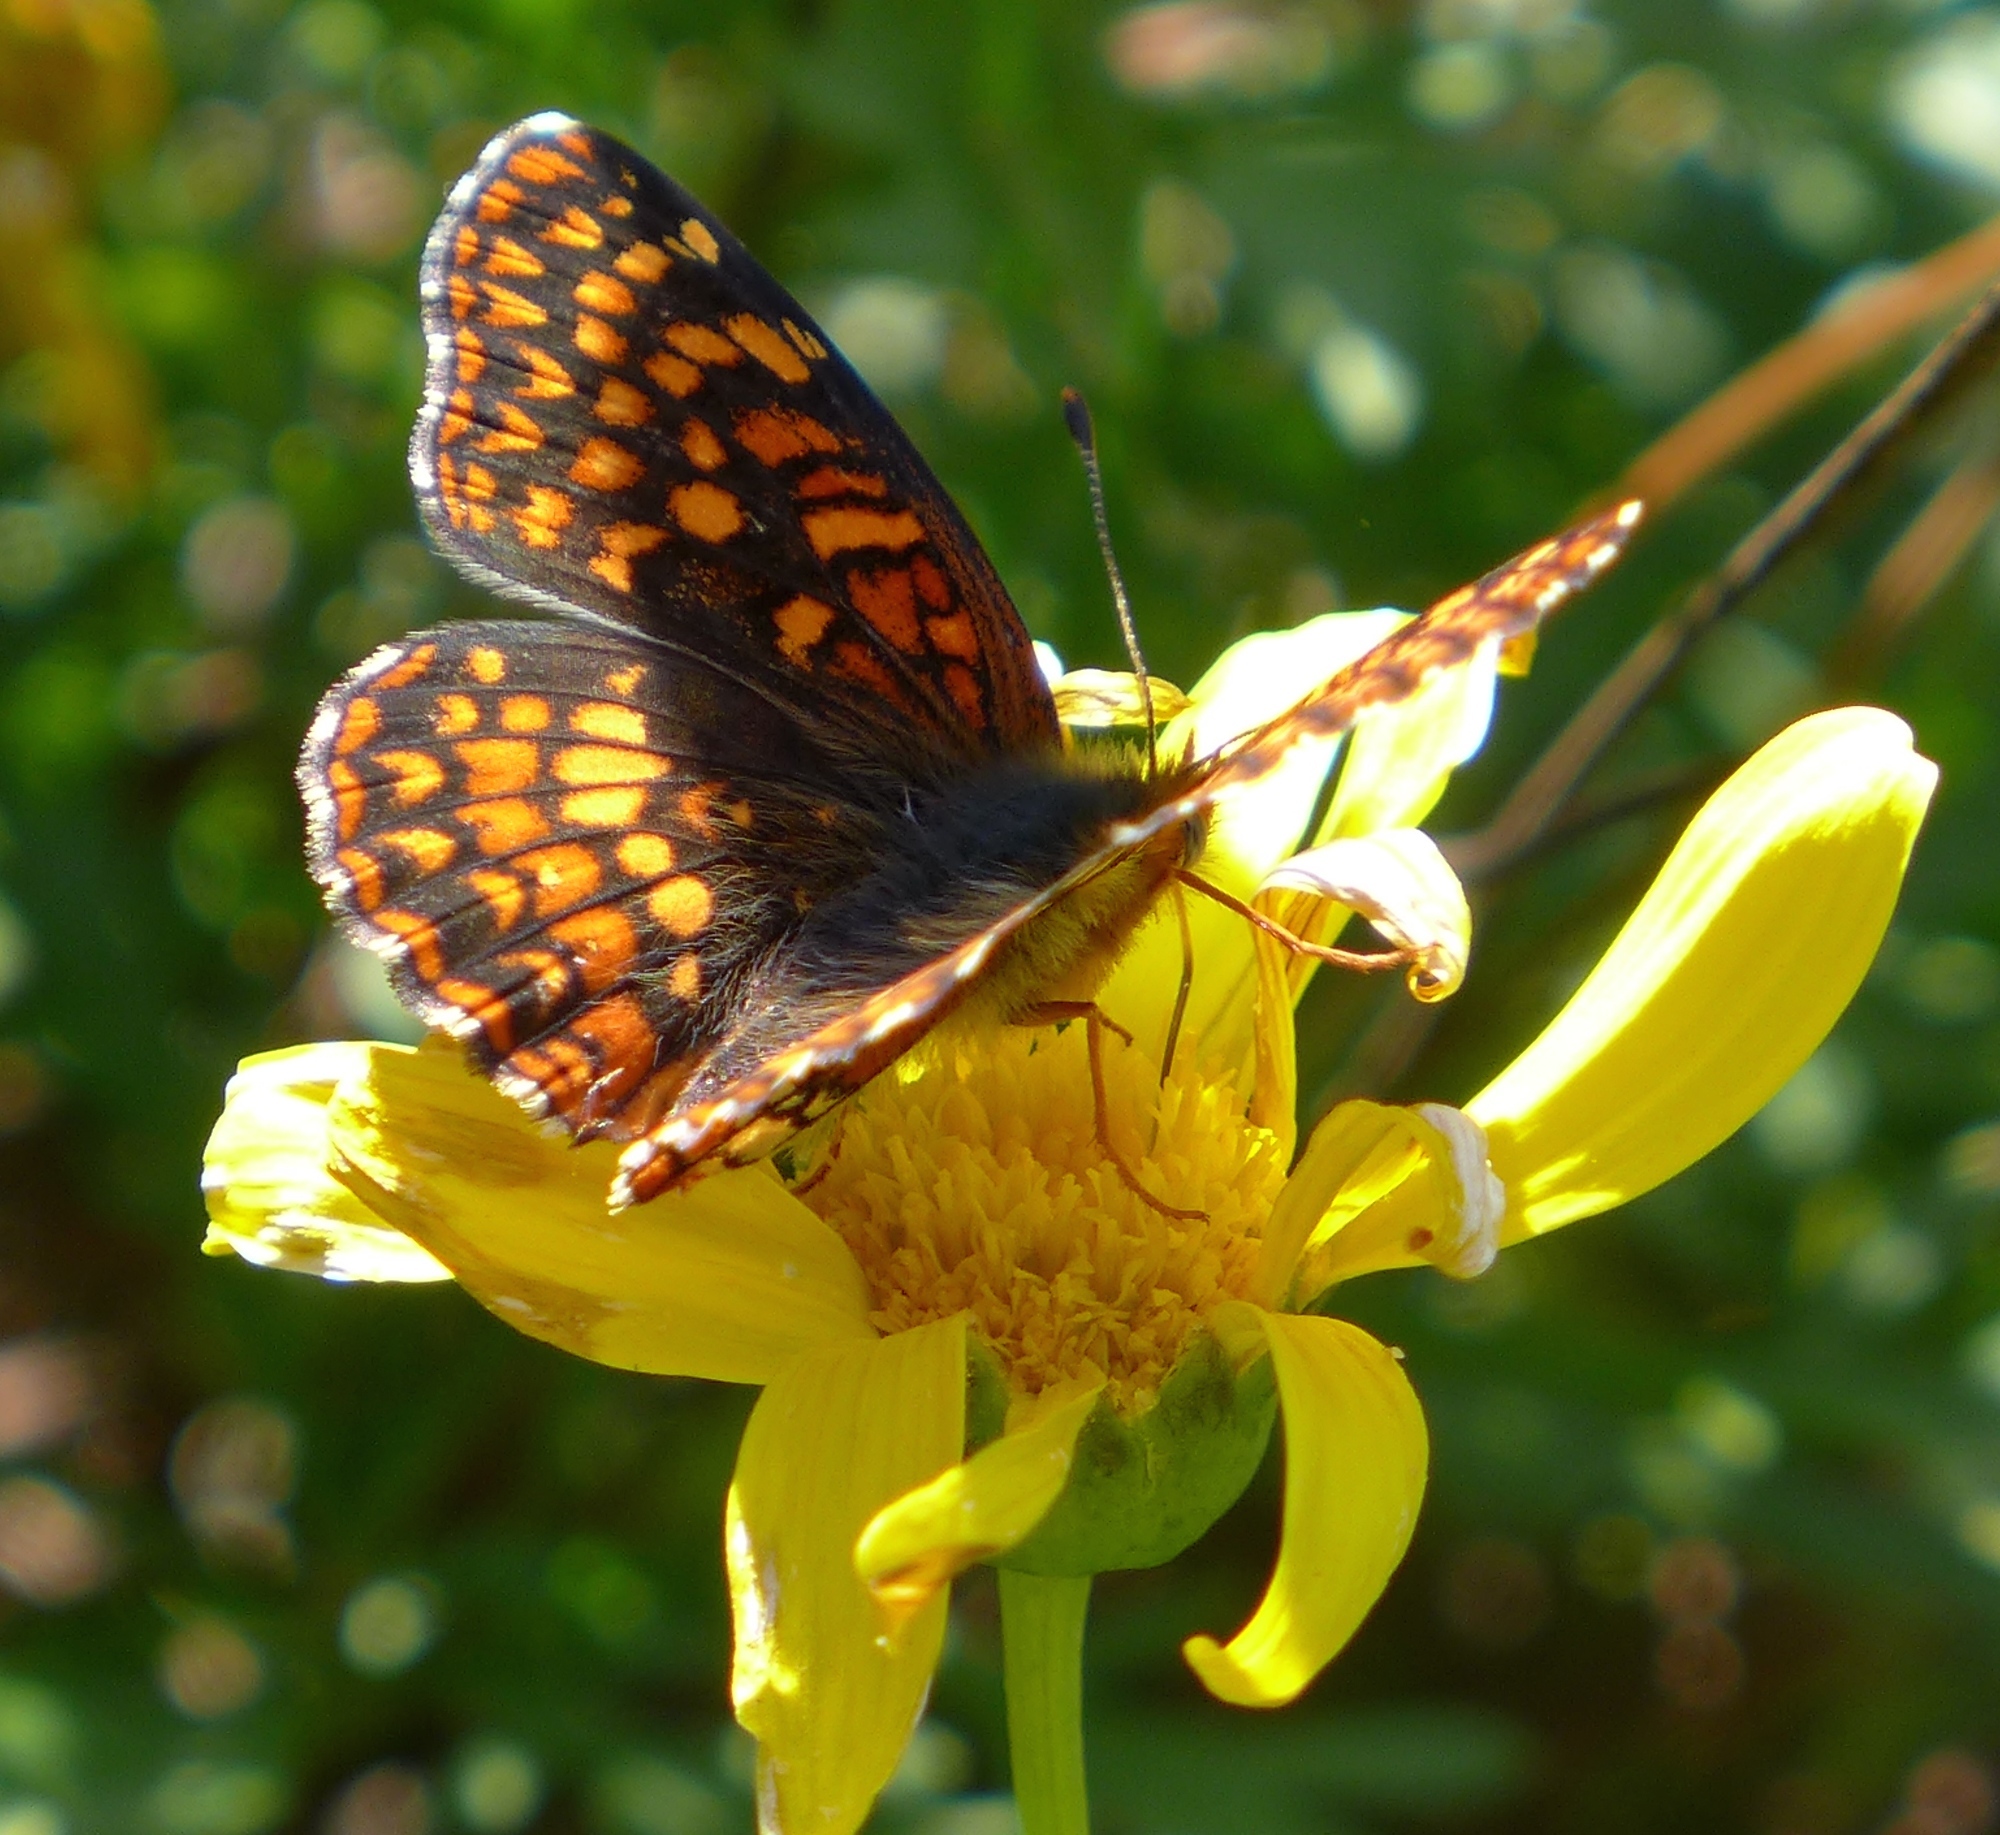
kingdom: Animalia
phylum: Arthropoda
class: Insecta
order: Lepidoptera
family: Nymphalidae
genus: Chlosyne
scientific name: Chlosyne palla
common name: Northern checkerspot
